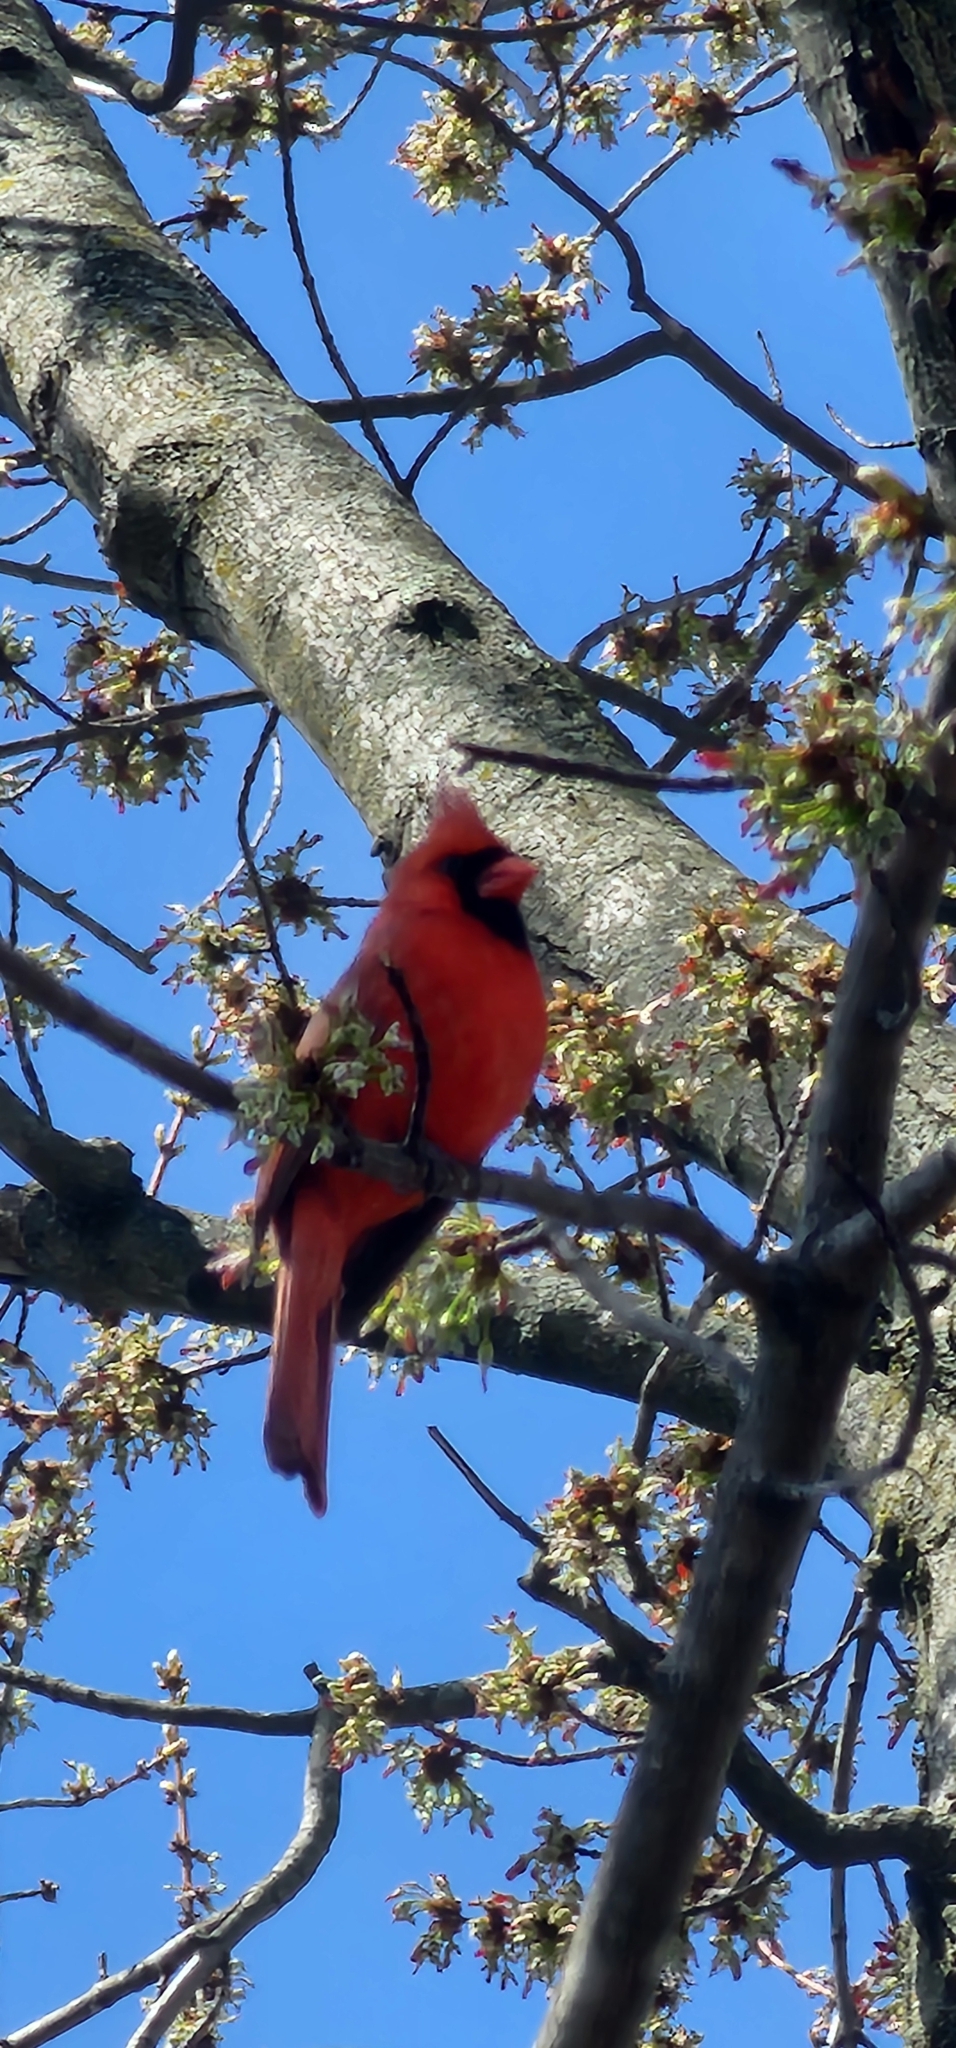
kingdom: Animalia
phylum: Chordata
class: Aves
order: Passeriformes
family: Cardinalidae
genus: Cardinalis
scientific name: Cardinalis cardinalis
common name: Northern cardinal
